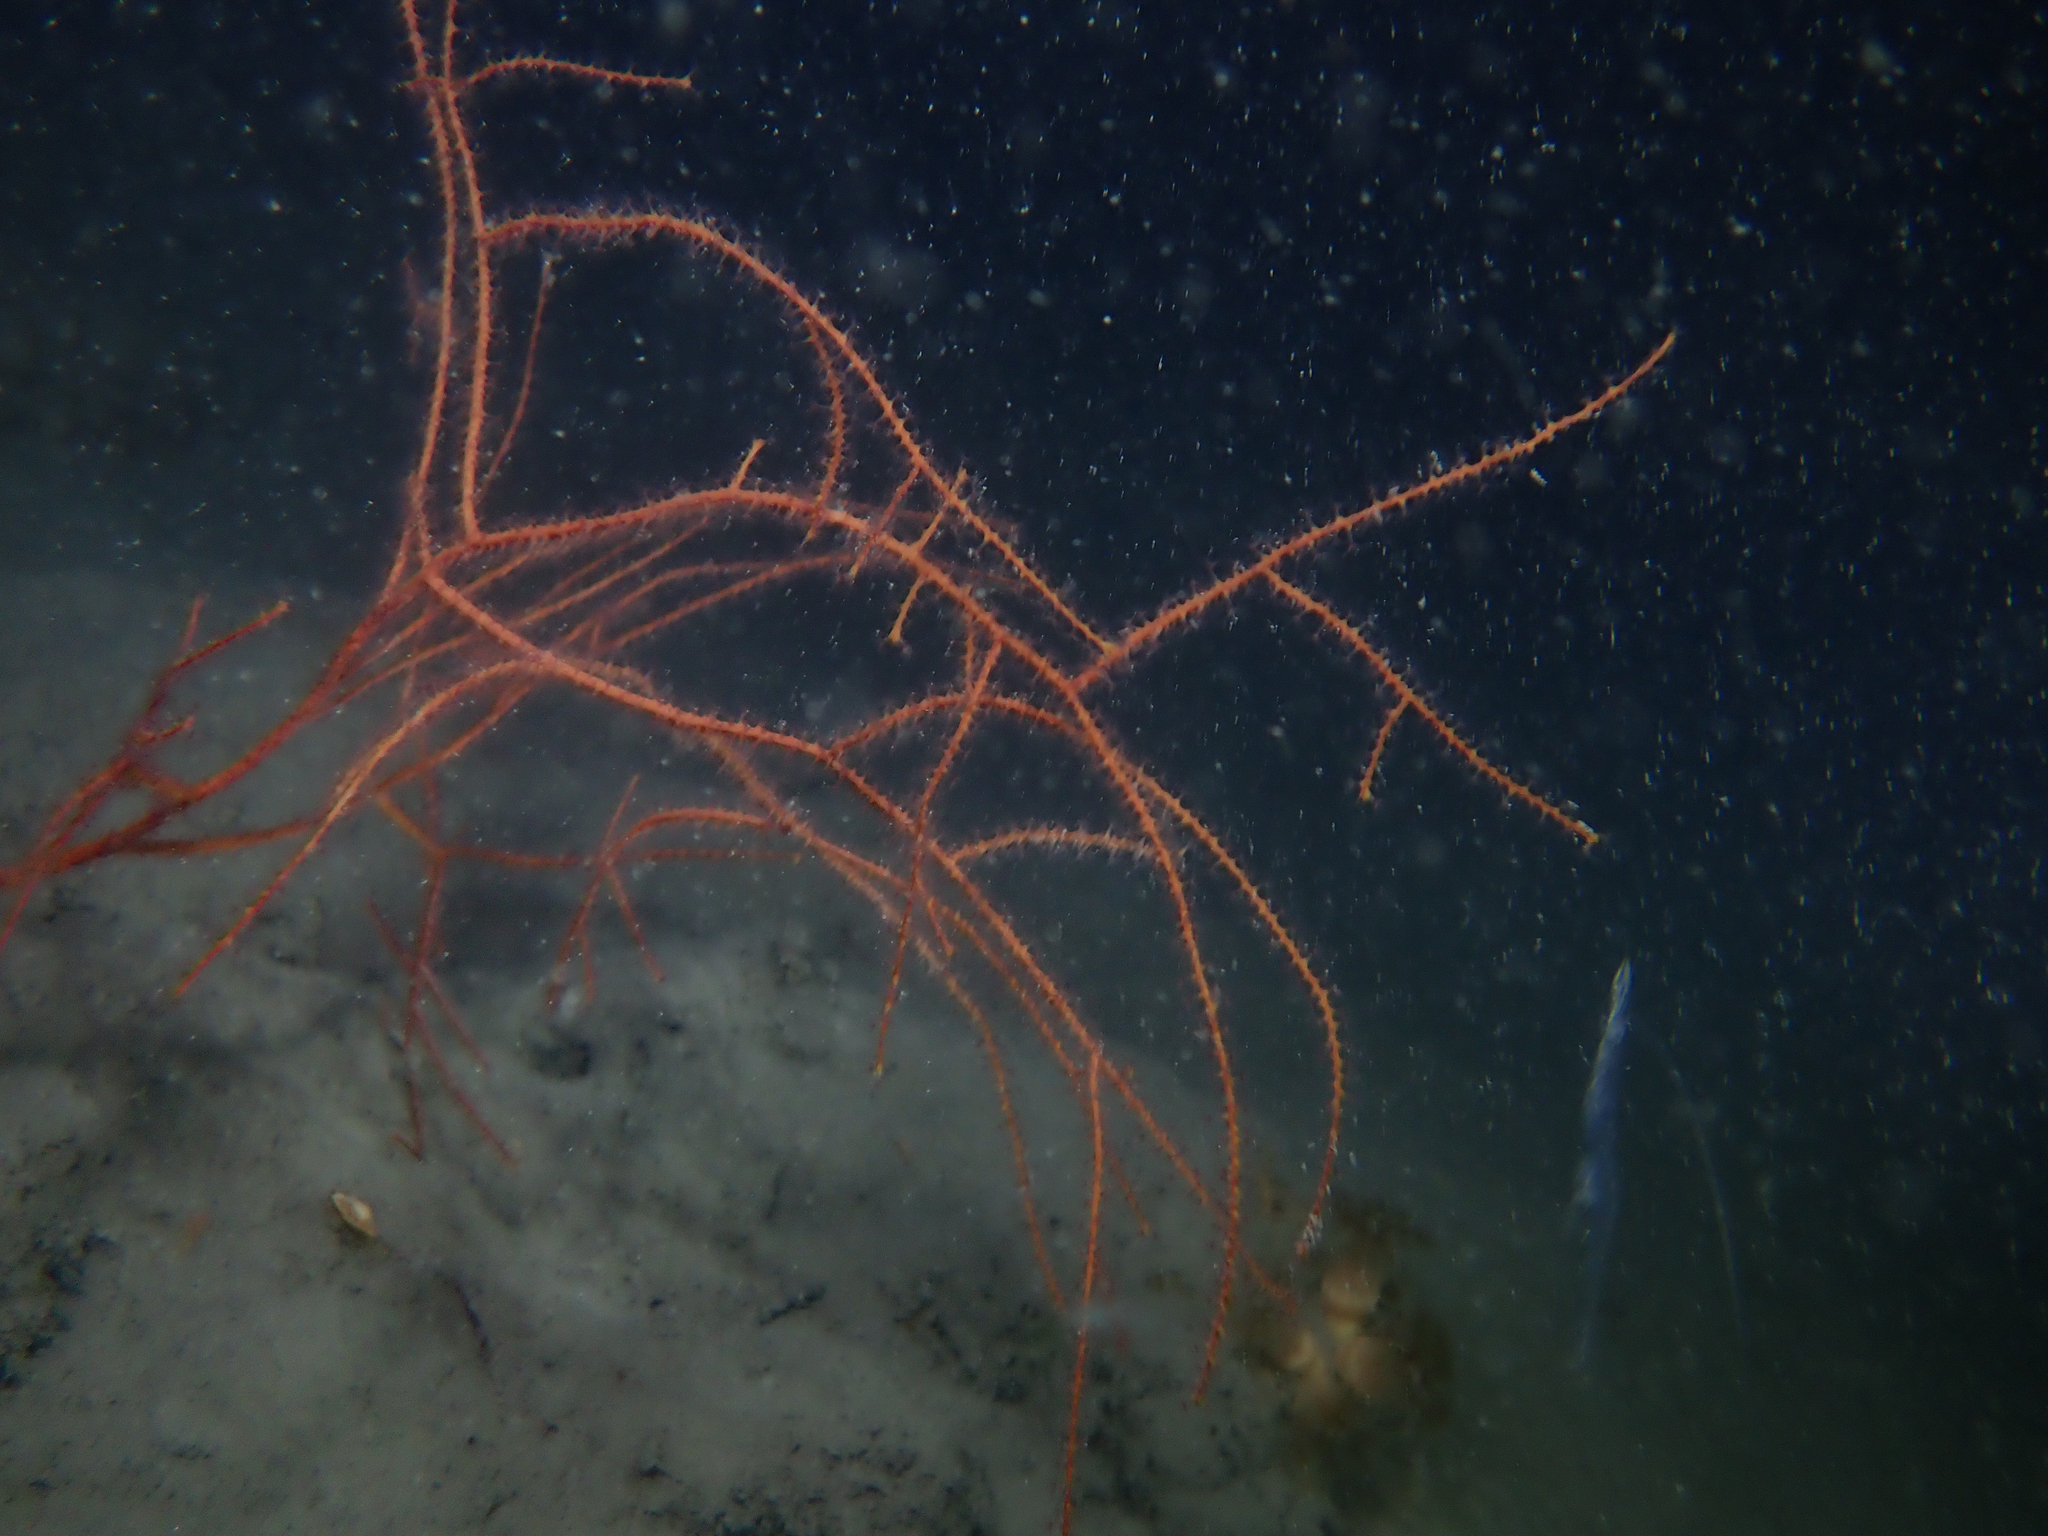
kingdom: Animalia
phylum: Cnidaria
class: Anthozoa
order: Malacalcyonacea
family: Gorgoniidae
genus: Leptogorgia
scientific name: Leptogorgia sarmentosa
